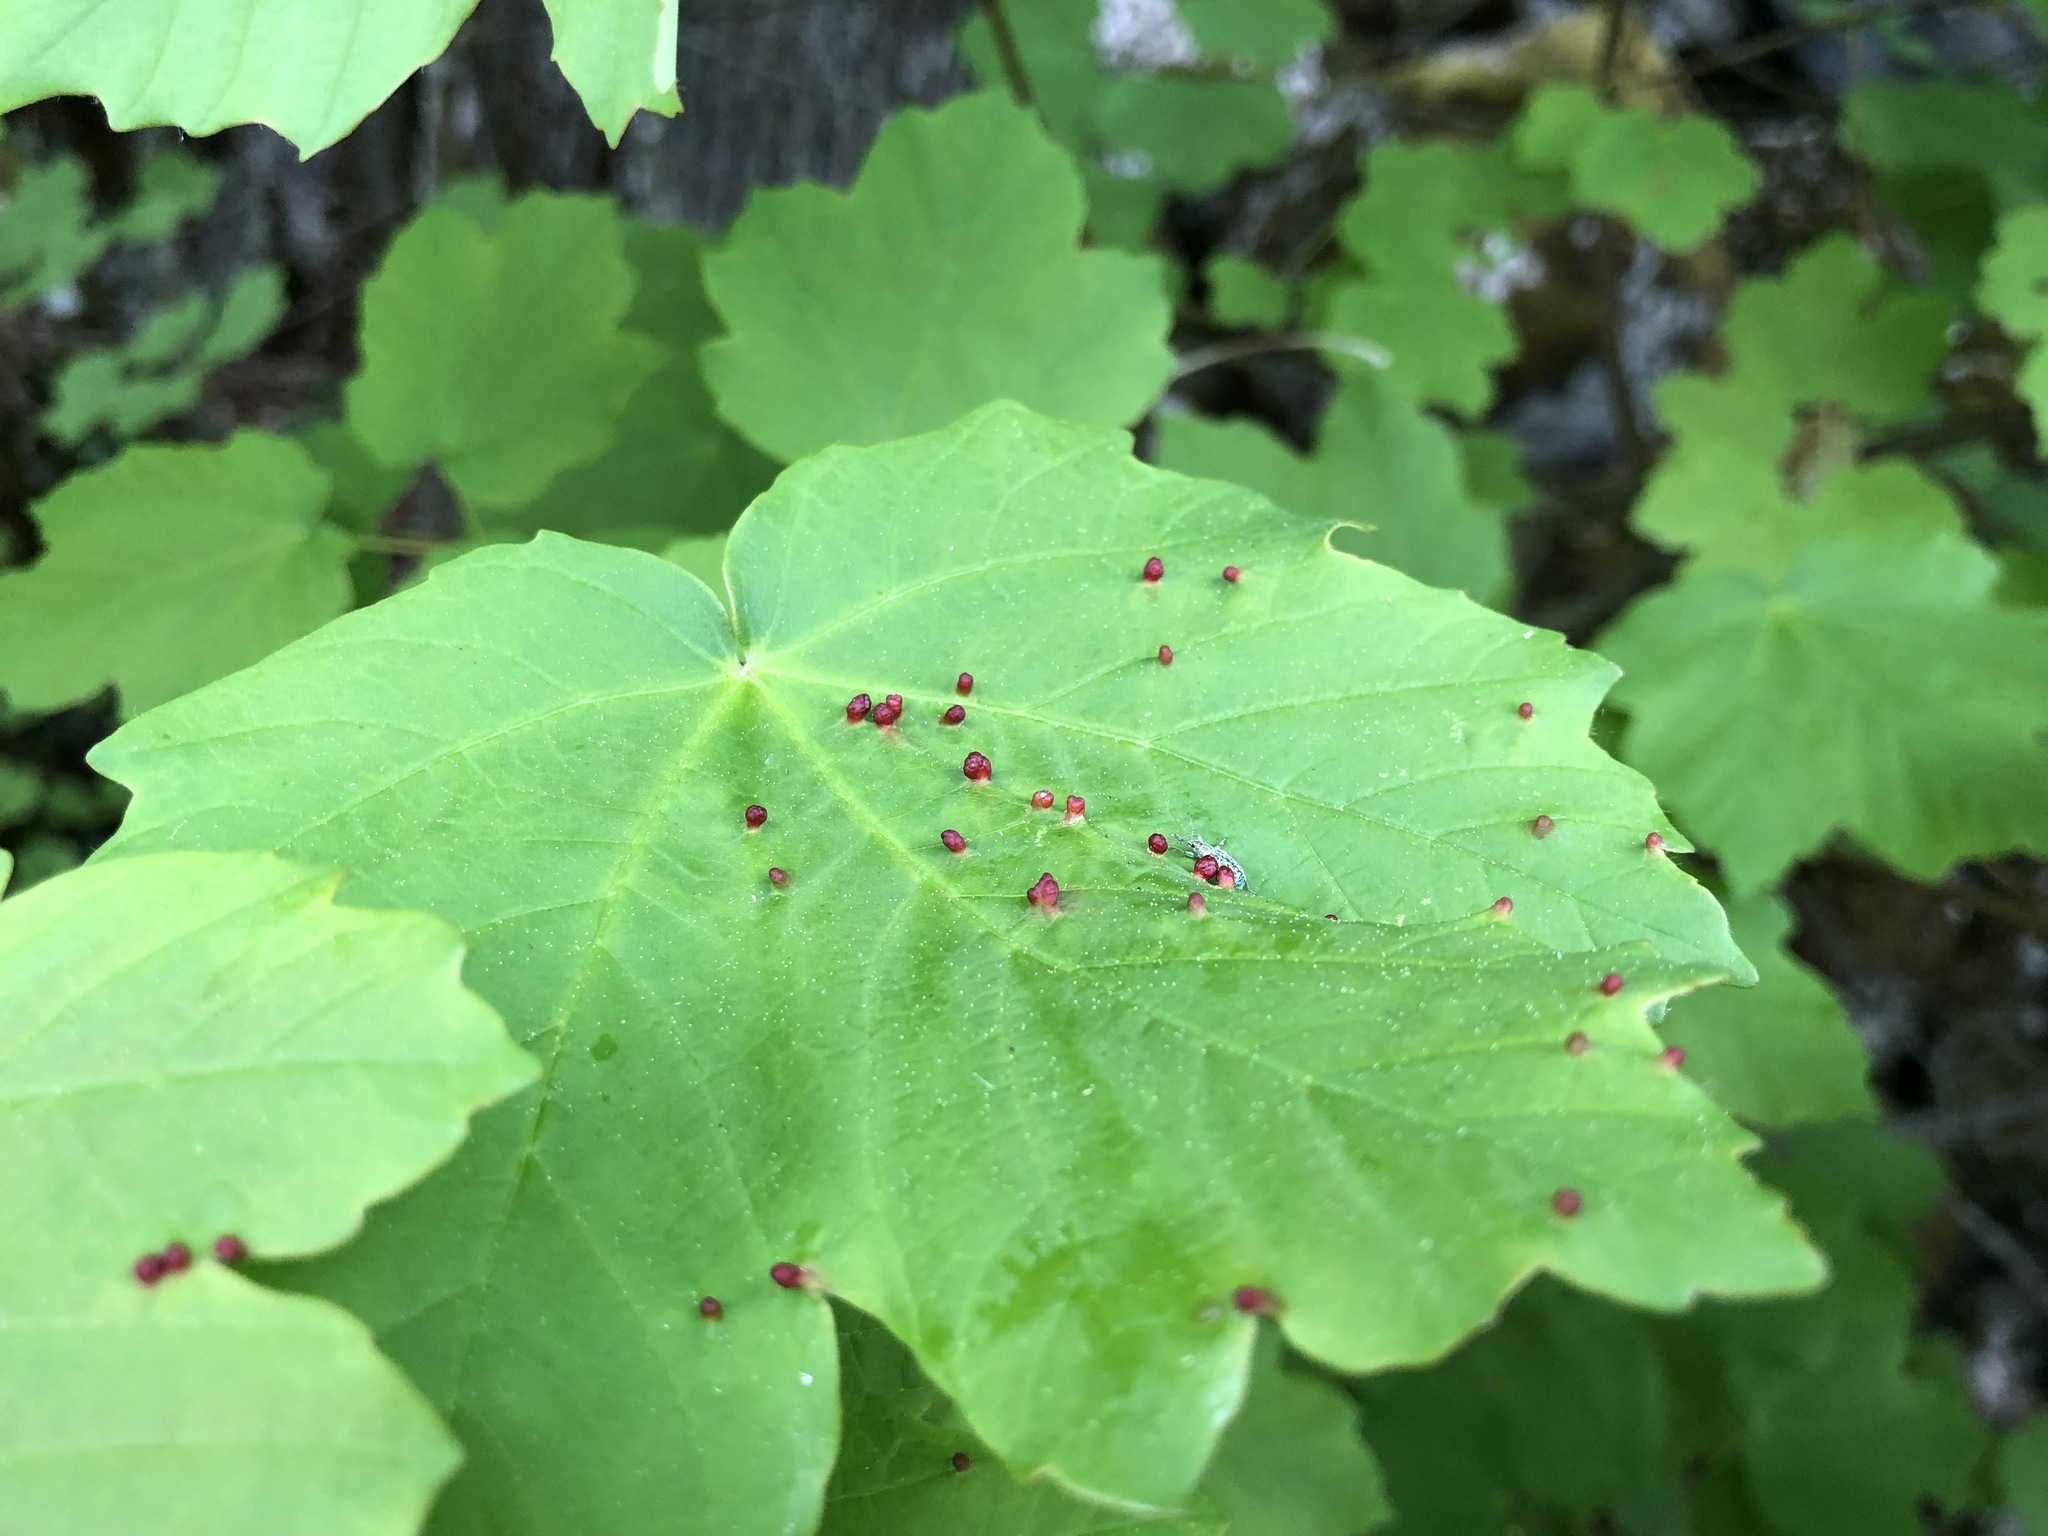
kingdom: Animalia
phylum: Arthropoda
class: Arachnida
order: Trombidiformes
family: Eriophyidae
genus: Aceria
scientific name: Aceria macrorhynchus
